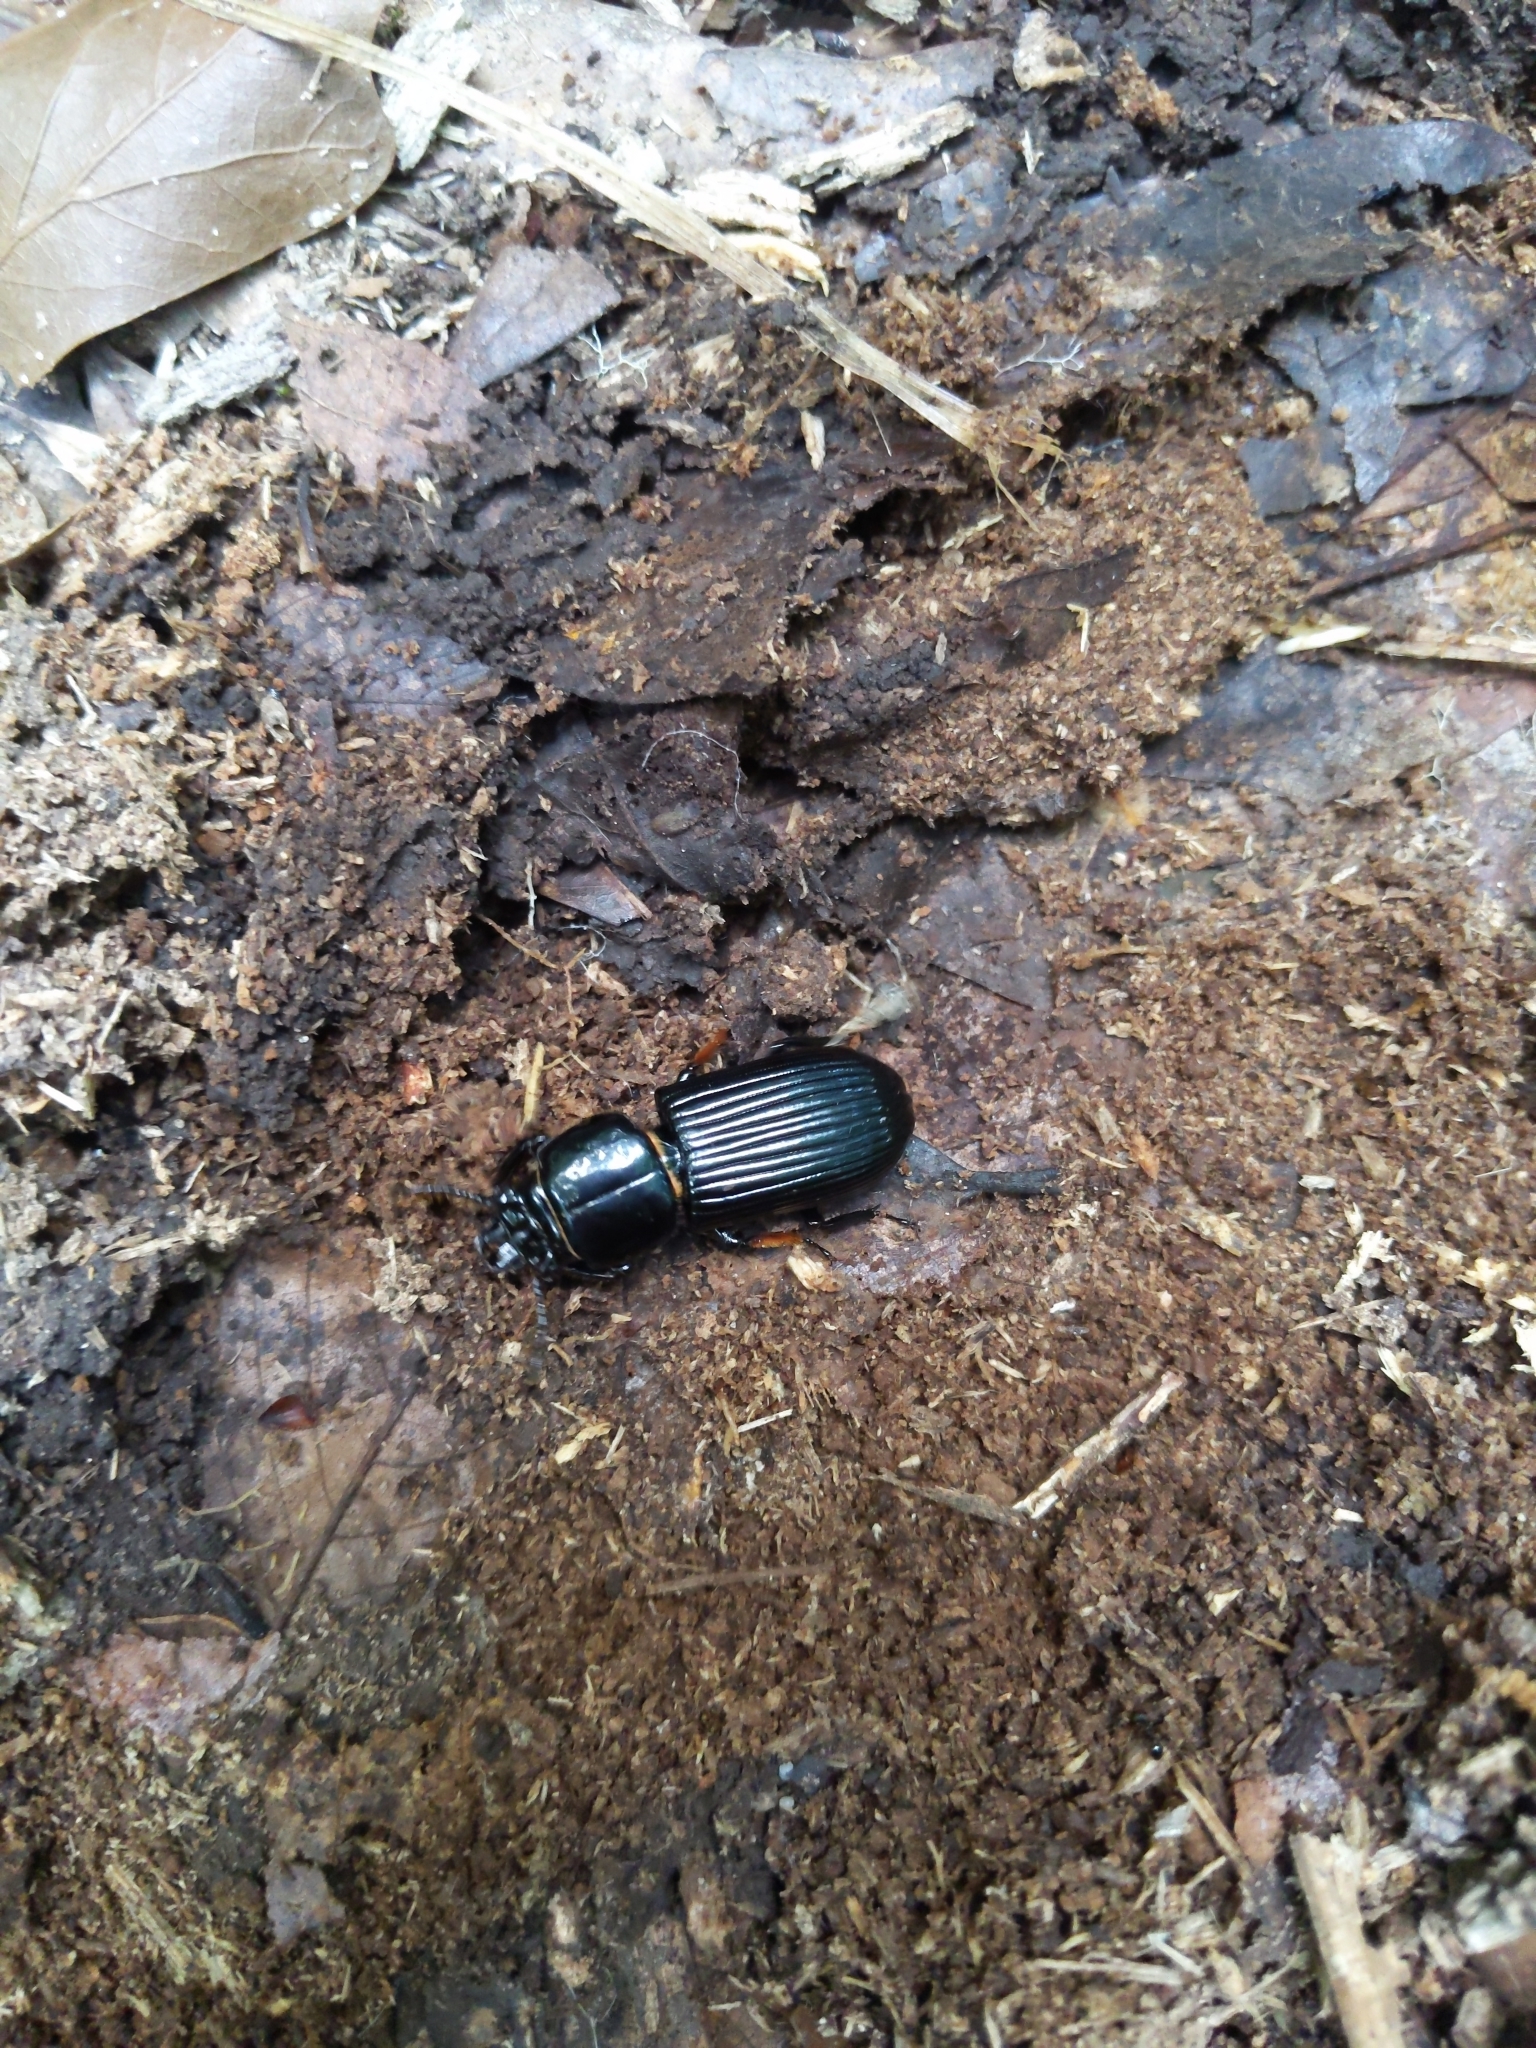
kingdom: Animalia
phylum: Arthropoda
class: Insecta
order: Coleoptera
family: Passalidae
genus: Odontotaenius
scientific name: Odontotaenius disjunctus
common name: Patent leather beetle
